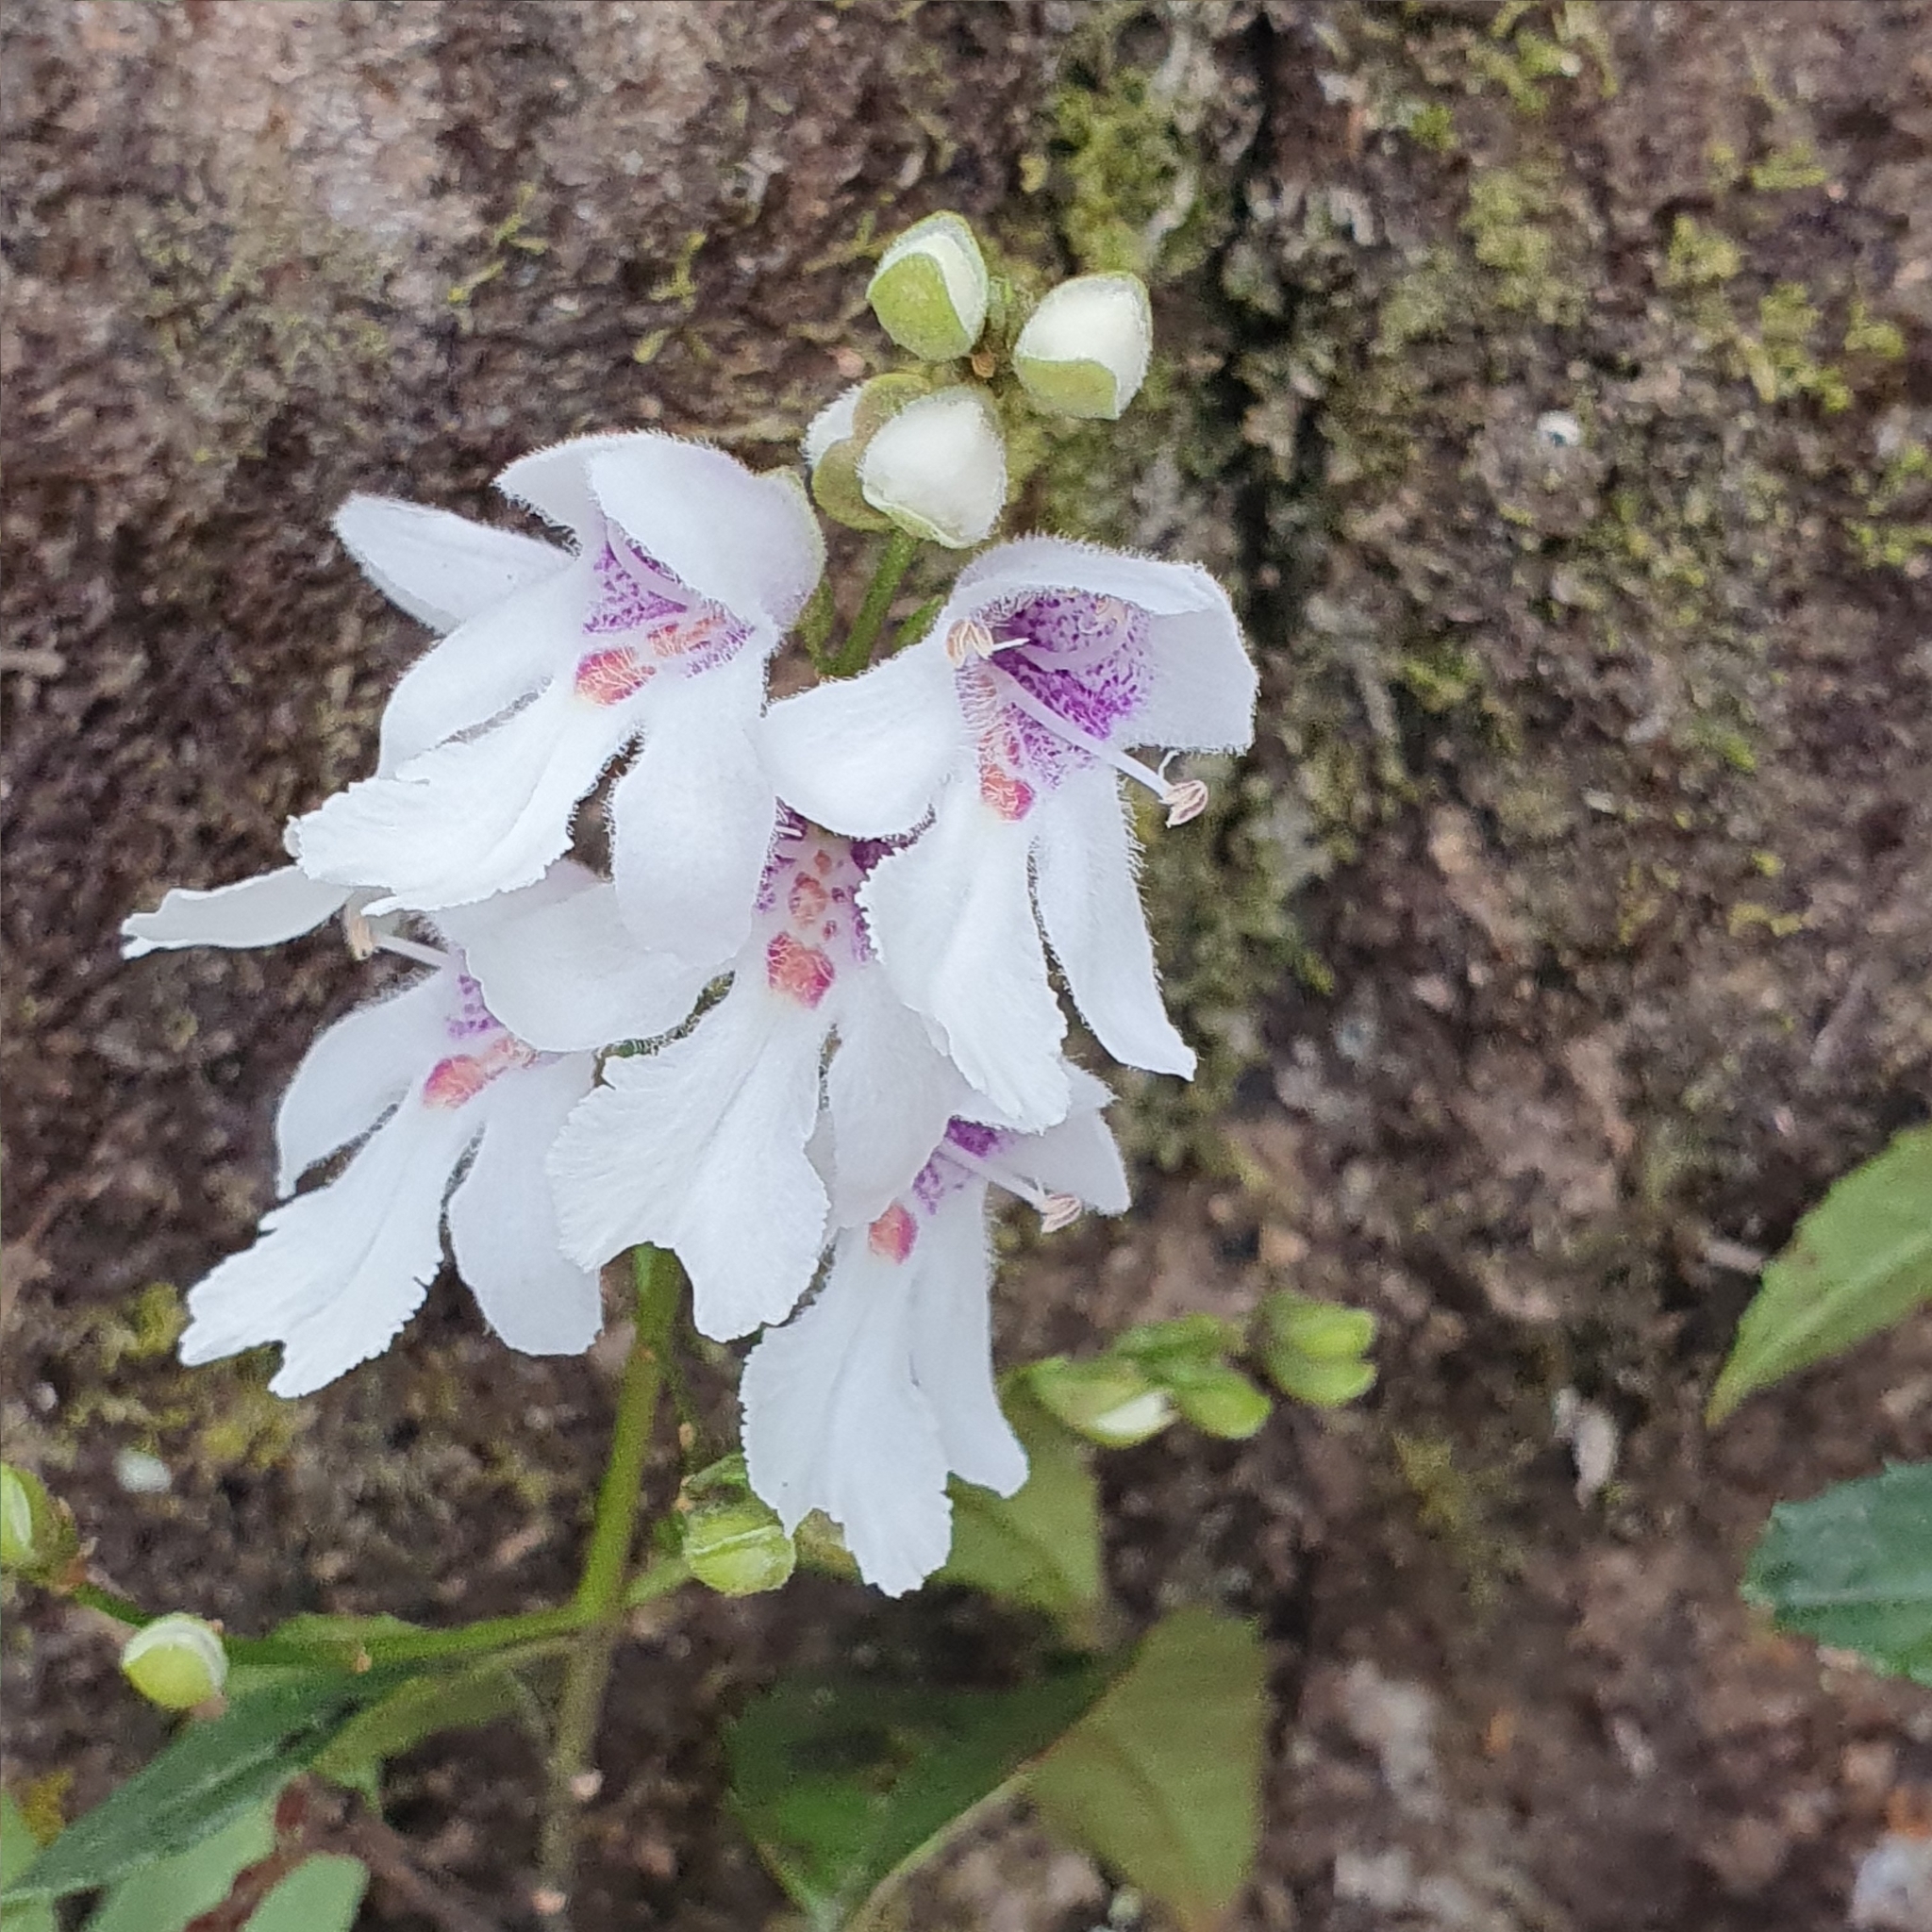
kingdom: Plantae
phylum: Tracheophyta
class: Magnoliopsida
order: Lamiales
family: Lamiaceae
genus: Prostanthera
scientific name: Prostanthera lasianthos
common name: Mountain-lilac
